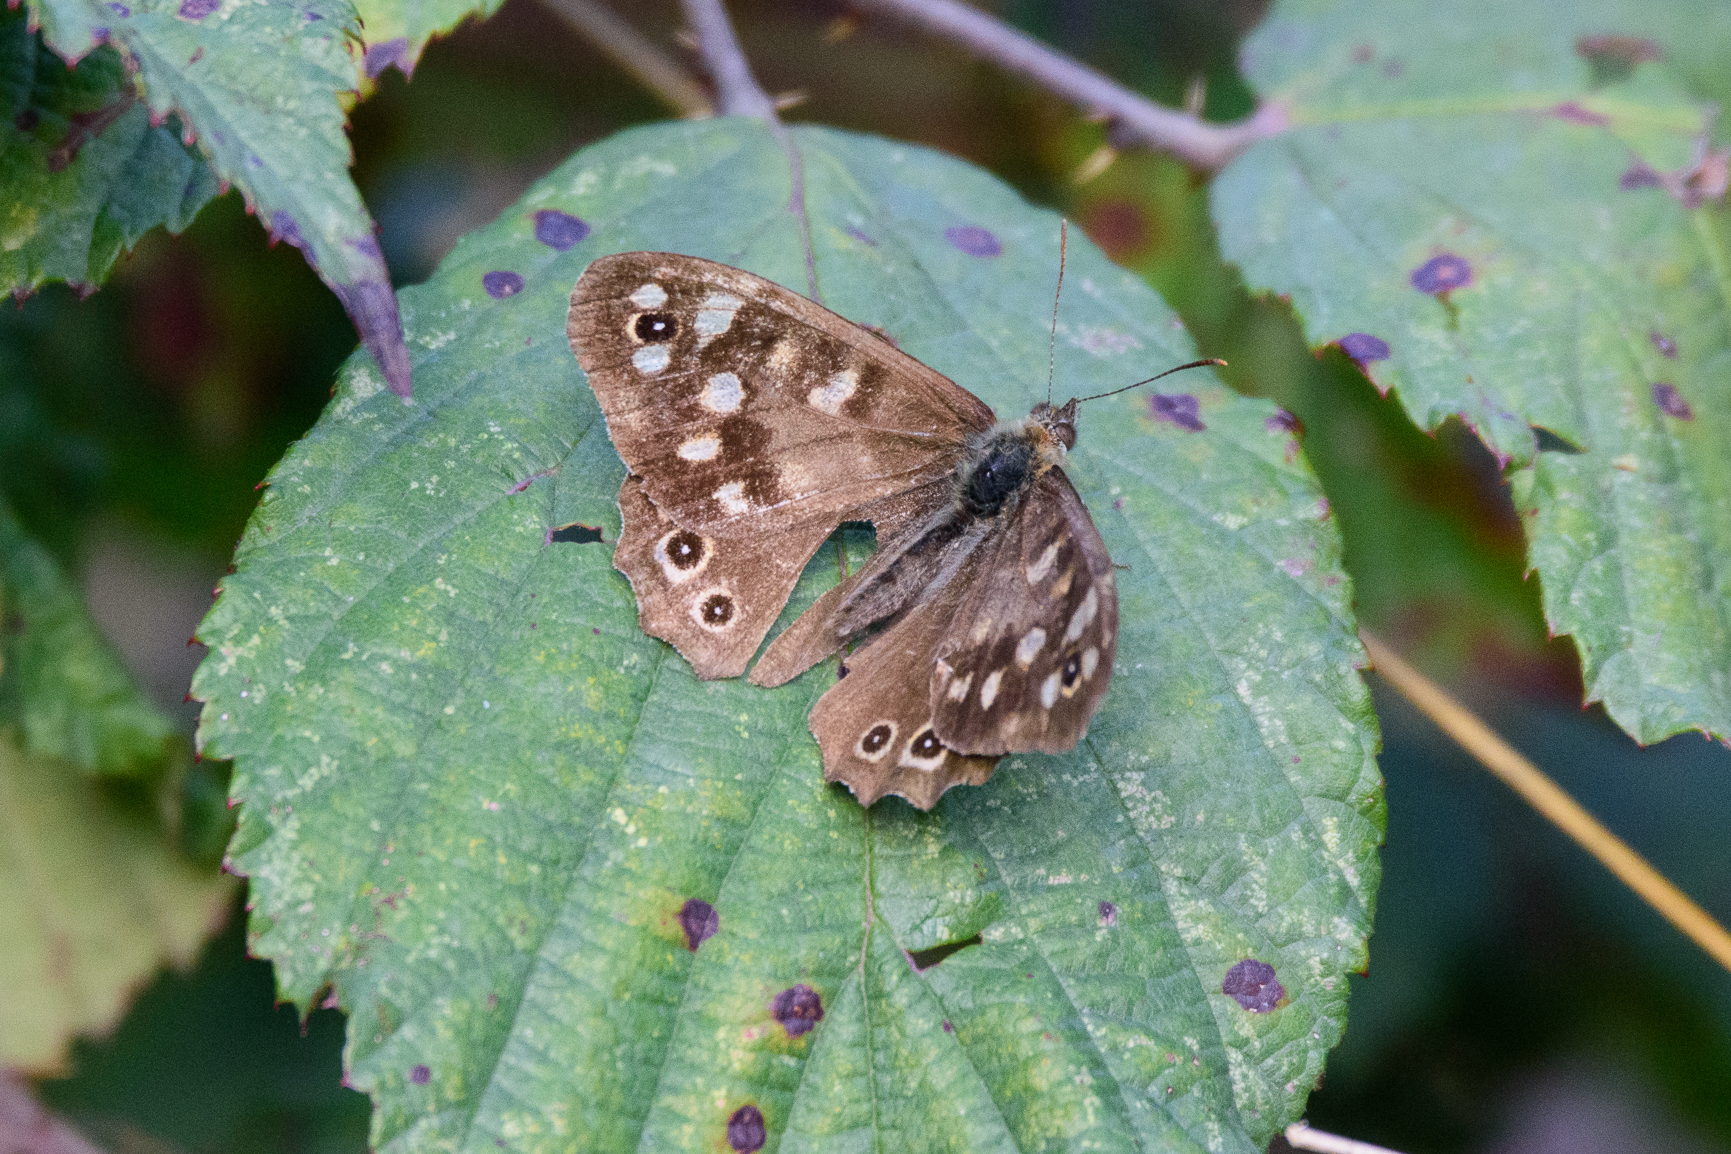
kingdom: Animalia
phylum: Arthropoda
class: Insecta
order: Lepidoptera
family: Nymphalidae
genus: Pararge
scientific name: Pararge aegeria
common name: Speckled wood
